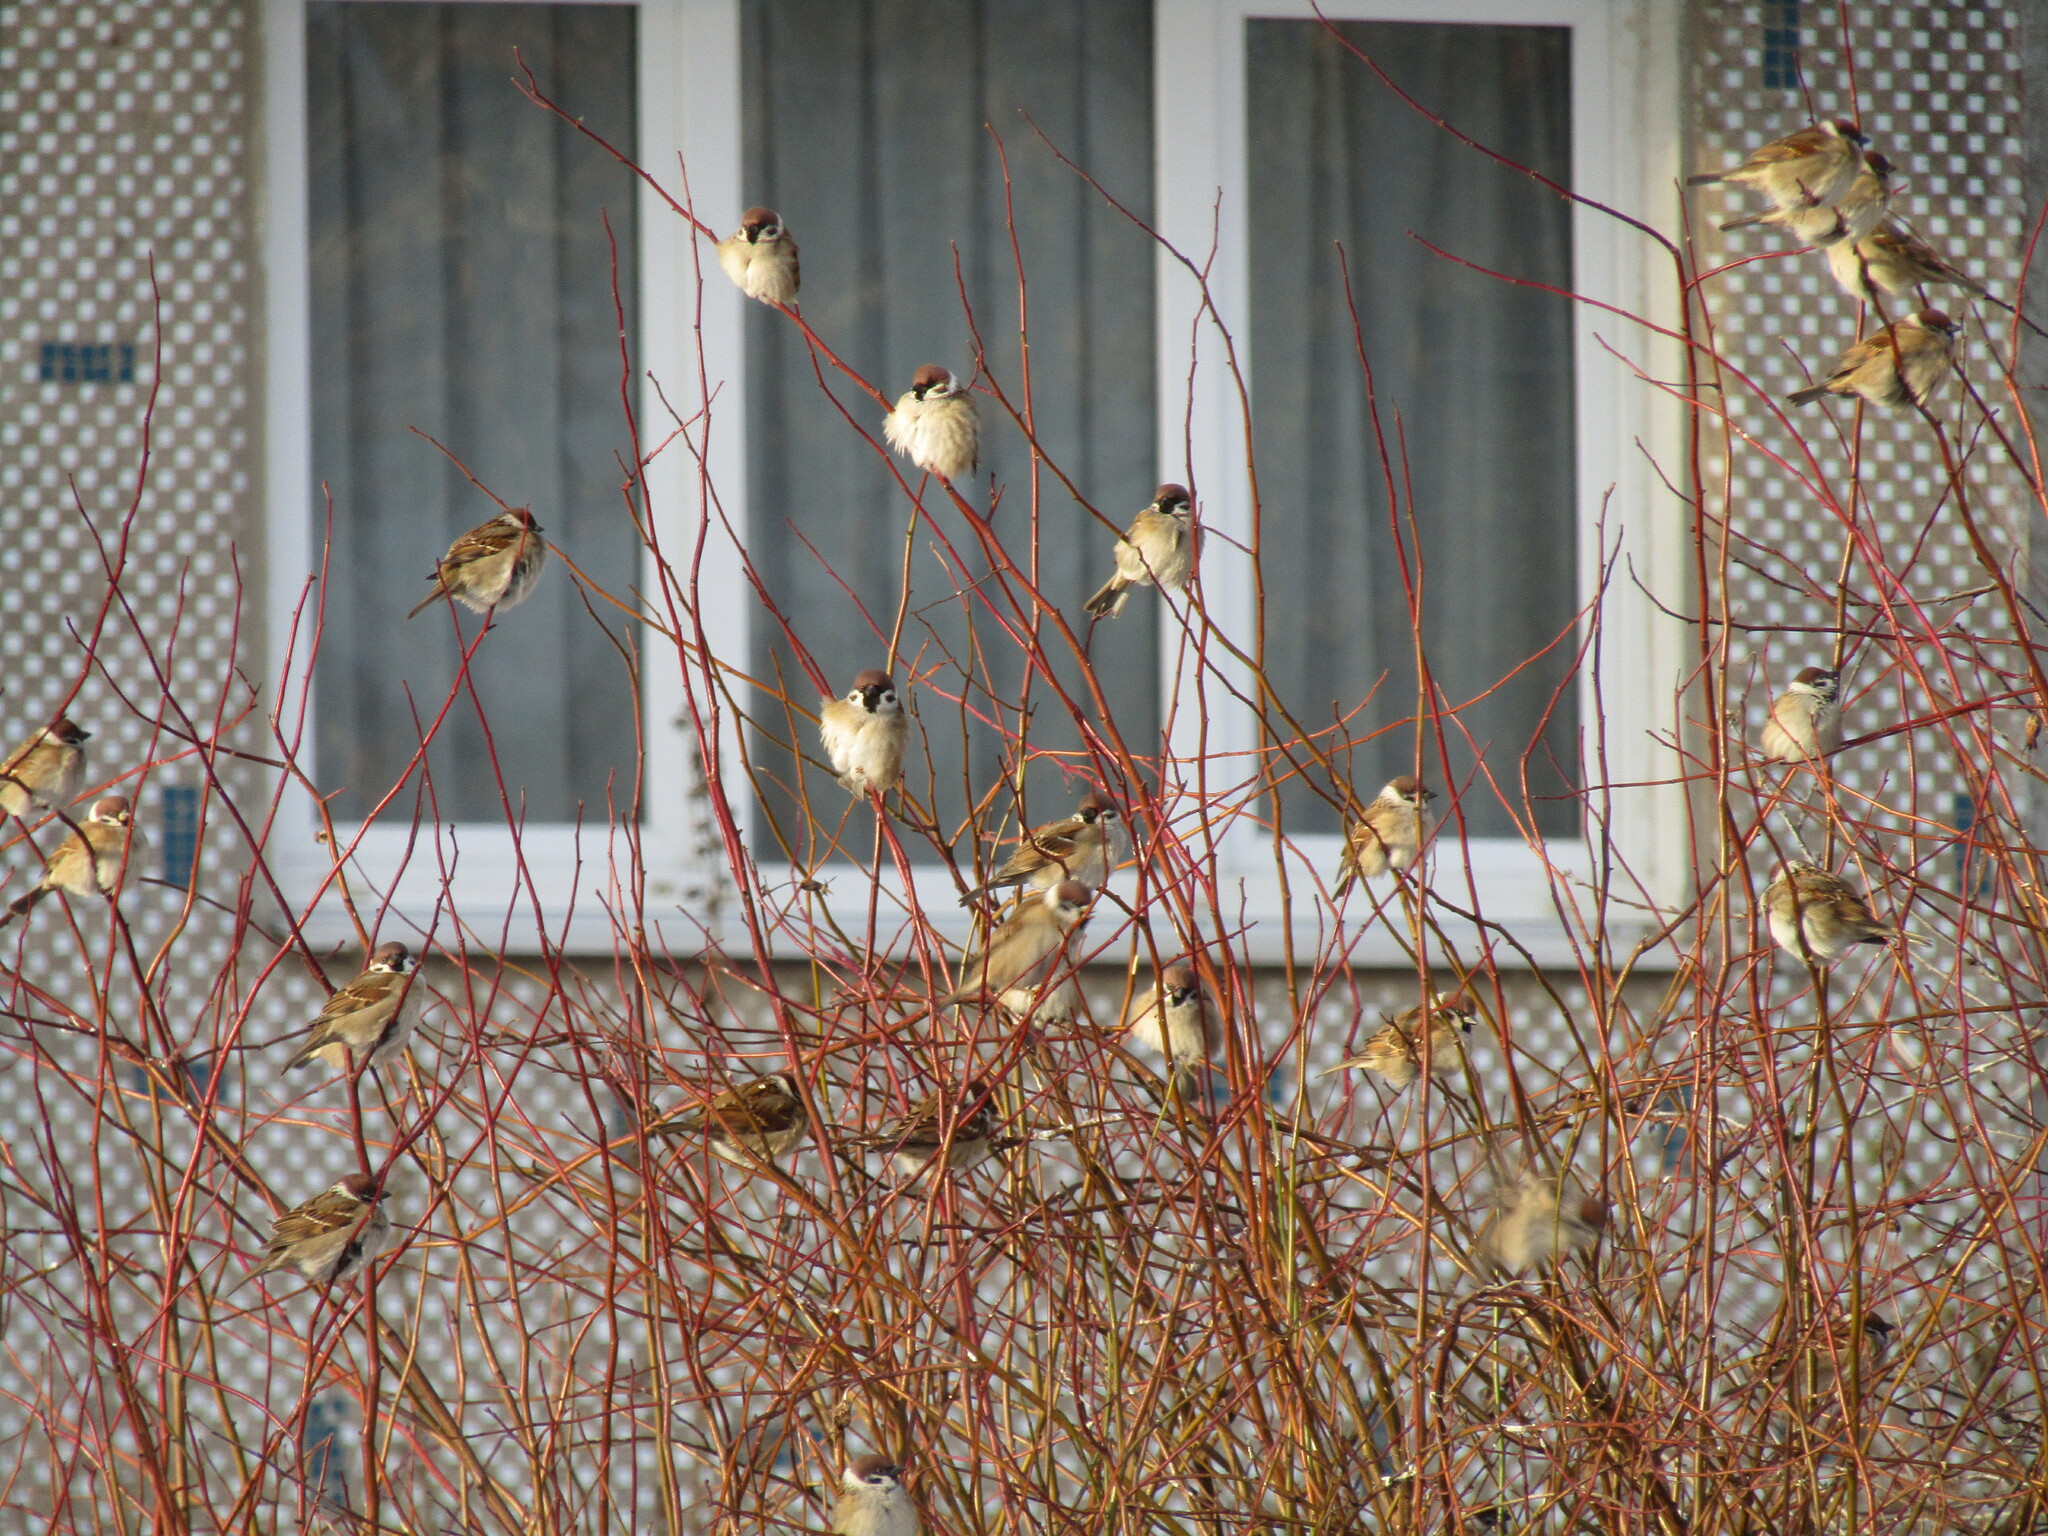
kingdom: Animalia
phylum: Chordata
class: Aves
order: Passeriformes
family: Passeridae
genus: Passer
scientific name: Passer montanus
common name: Eurasian tree sparrow
